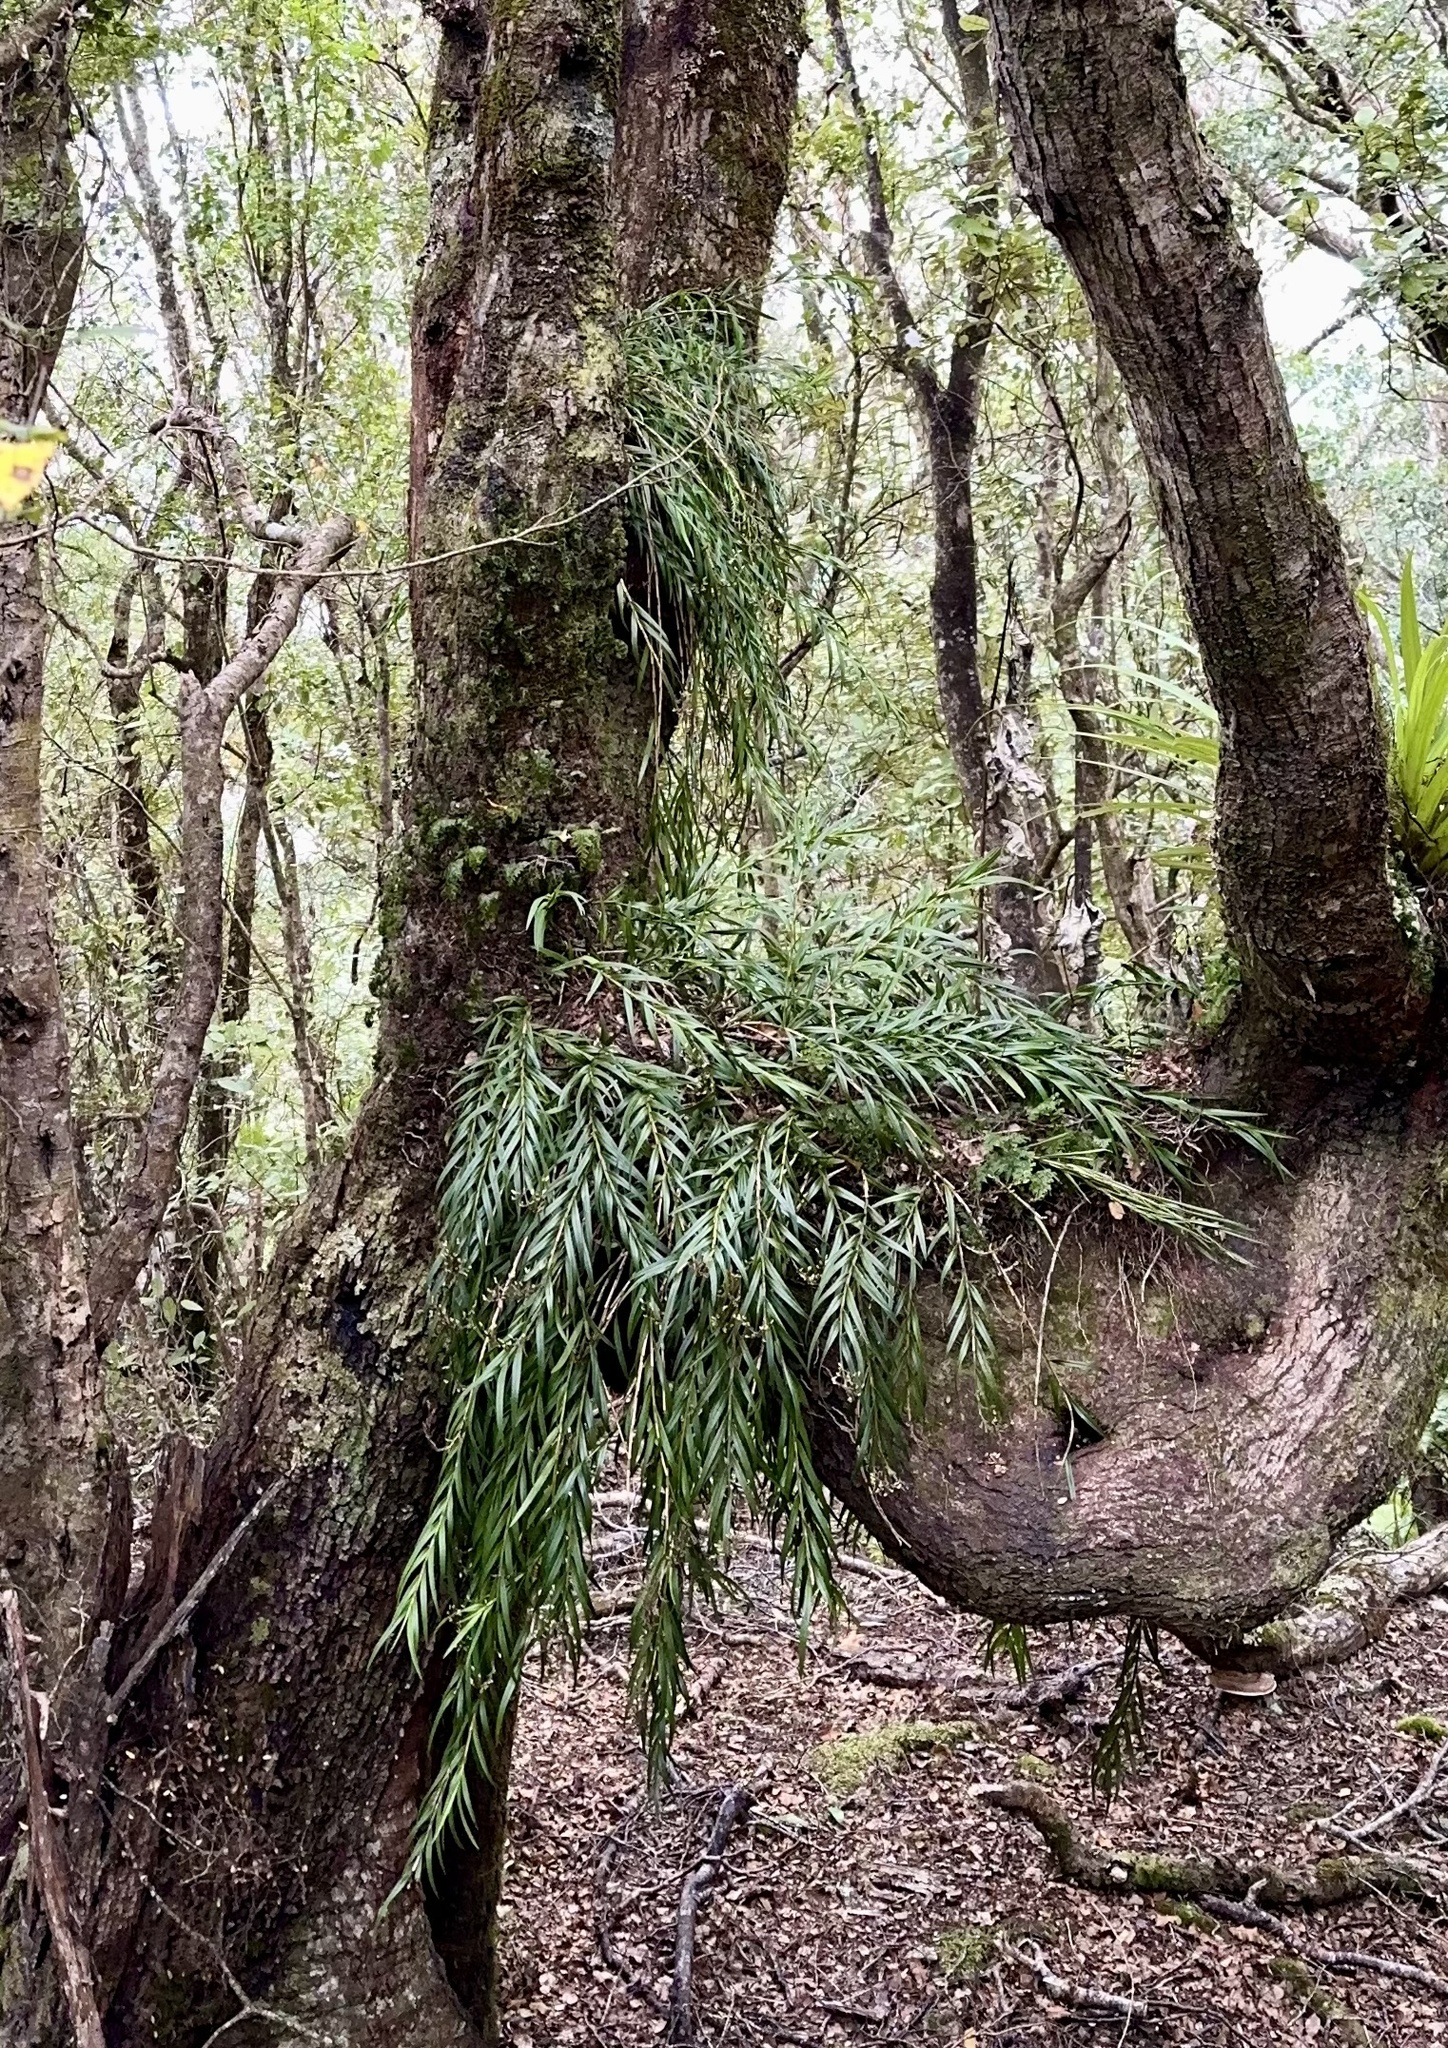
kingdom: Plantae
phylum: Tracheophyta
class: Liliopsida
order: Asparagales
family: Orchidaceae
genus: Earina
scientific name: Earina autumnalis
